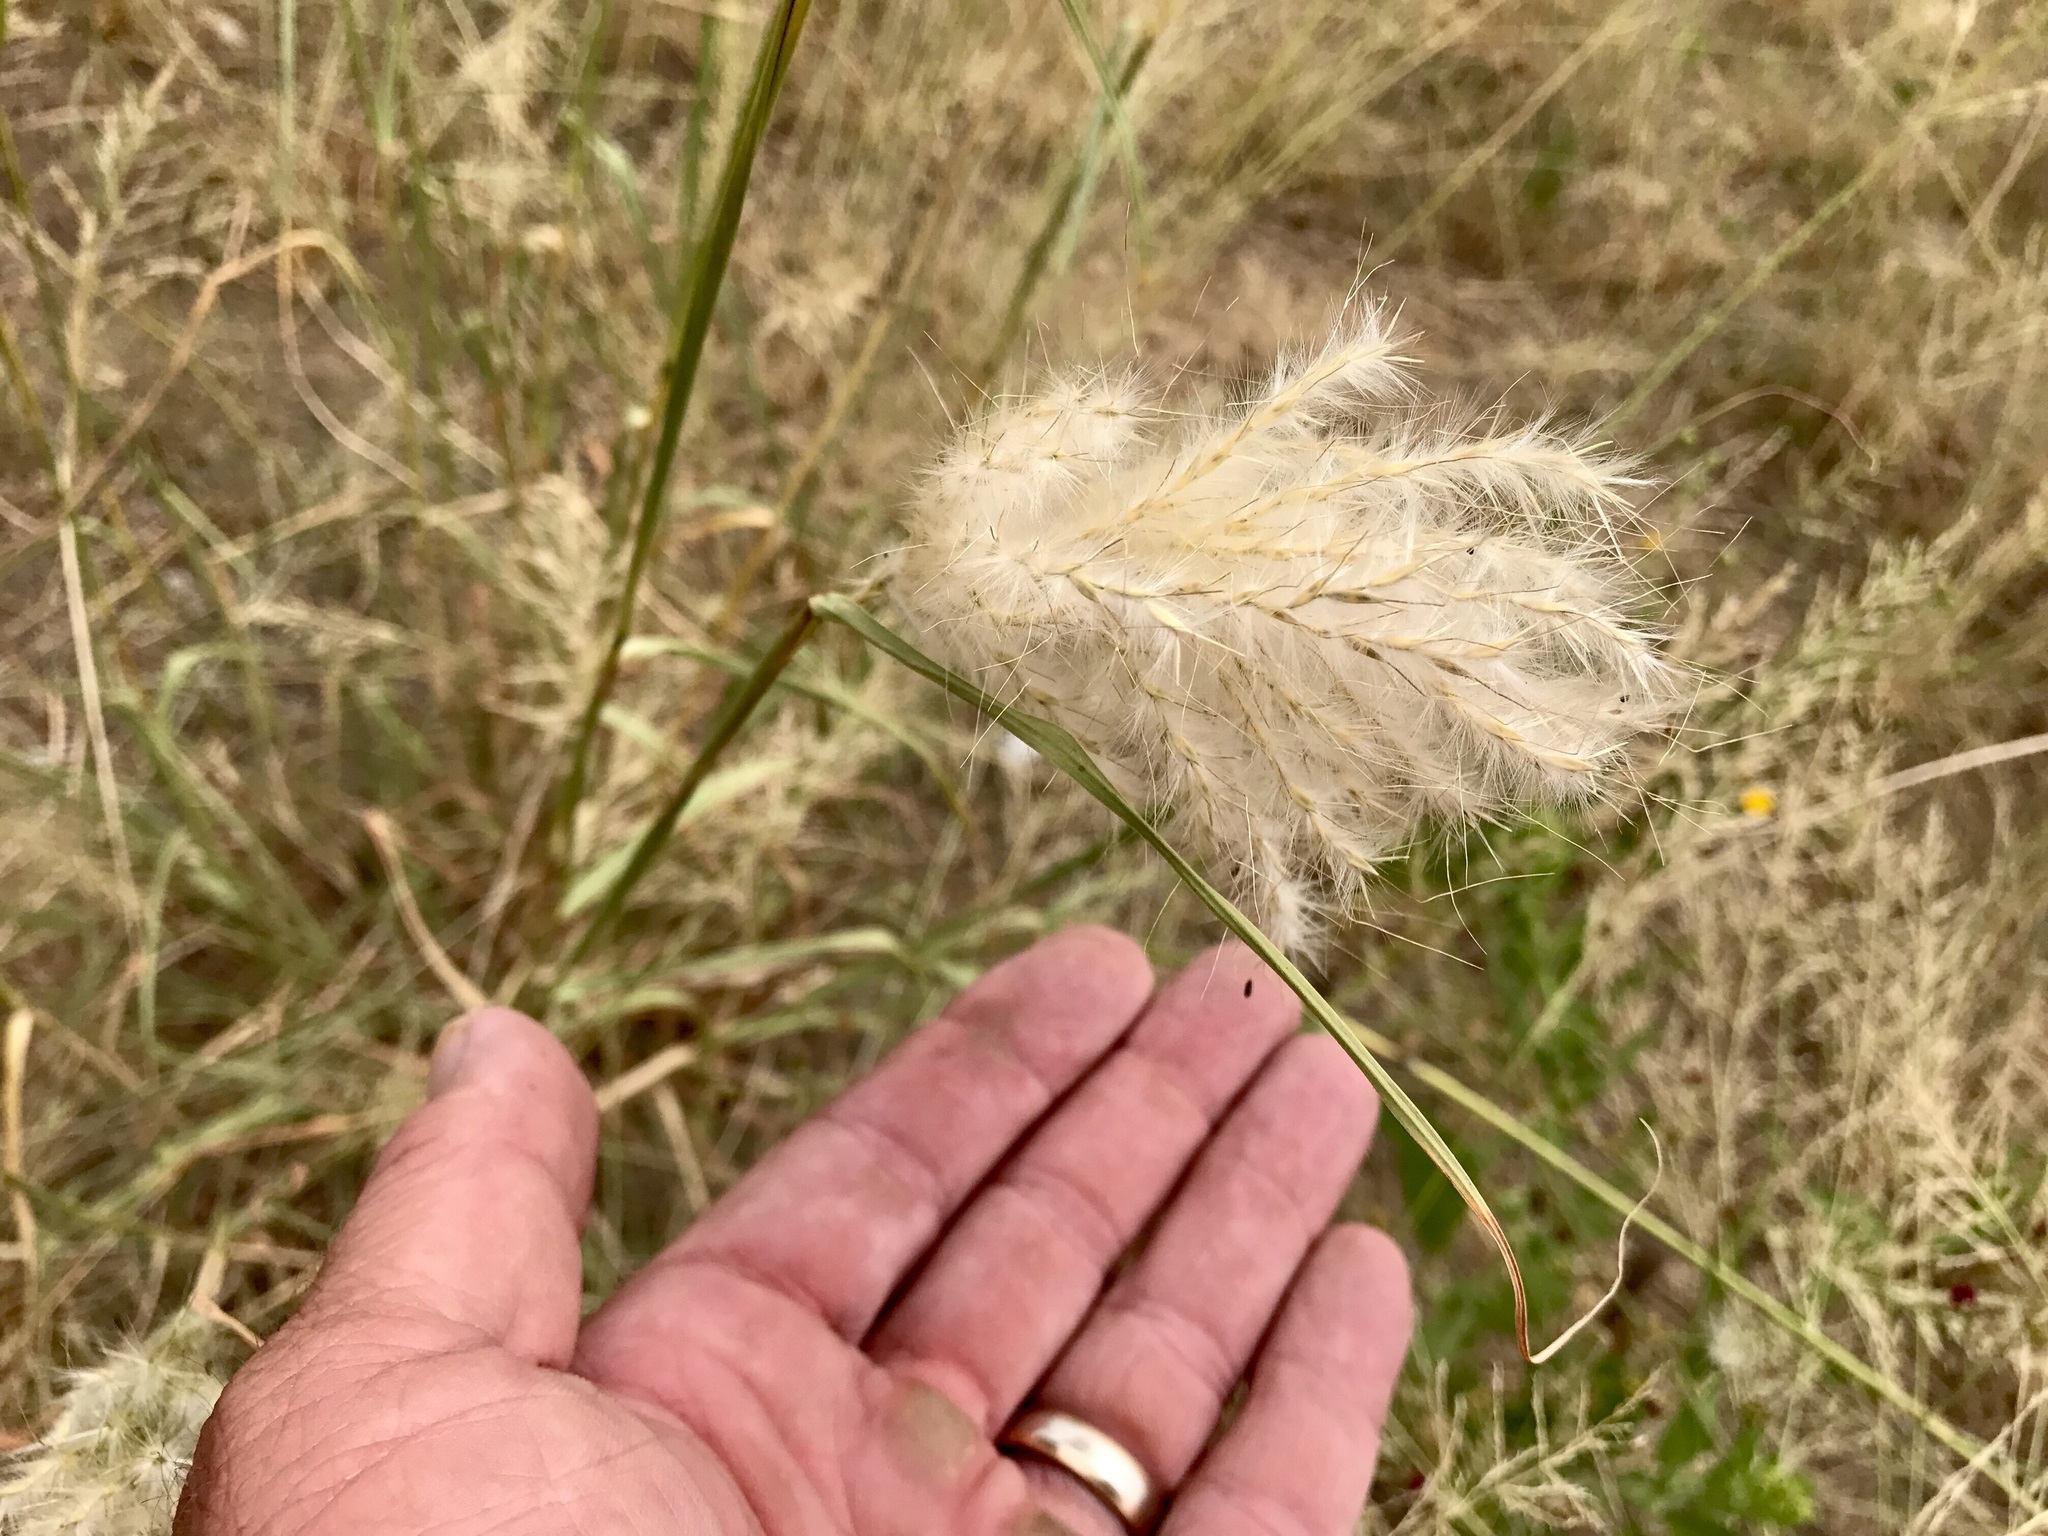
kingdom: Plantae
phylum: Tracheophyta
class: Liliopsida
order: Poales
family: Poaceae
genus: Bothriochloa
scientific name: Bothriochloa barbinodis
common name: Cane bluestem
